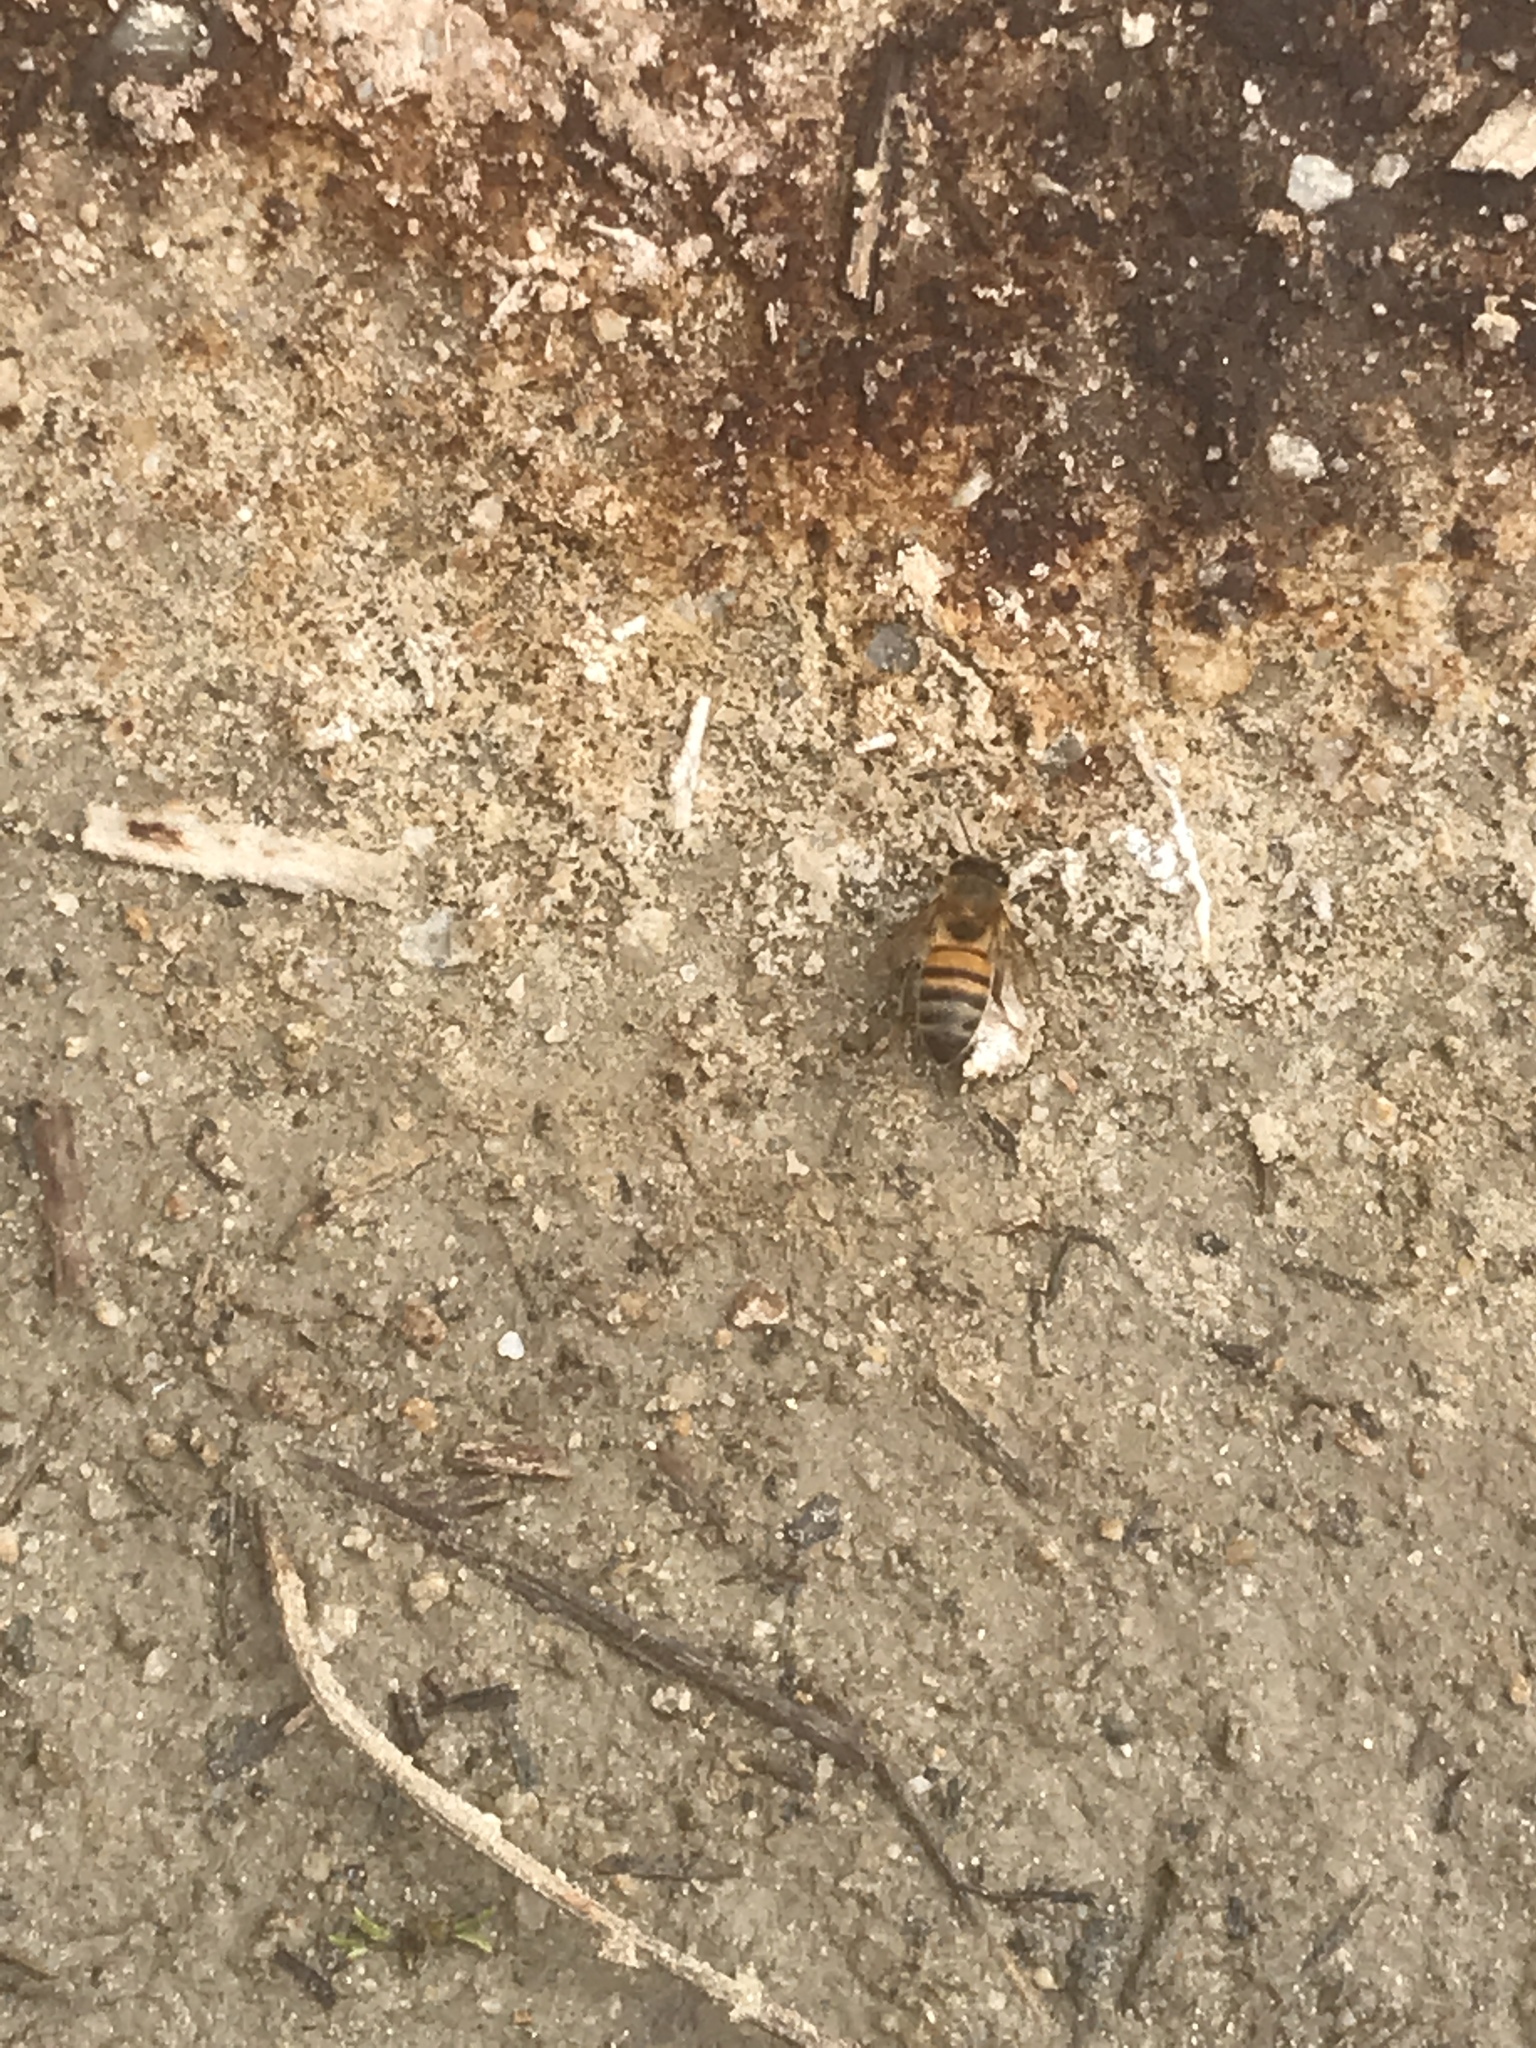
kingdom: Animalia
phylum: Arthropoda
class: Insecta
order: Hymenoptera
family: Apidae
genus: Apis
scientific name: Apis mellifera
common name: Honey bee
